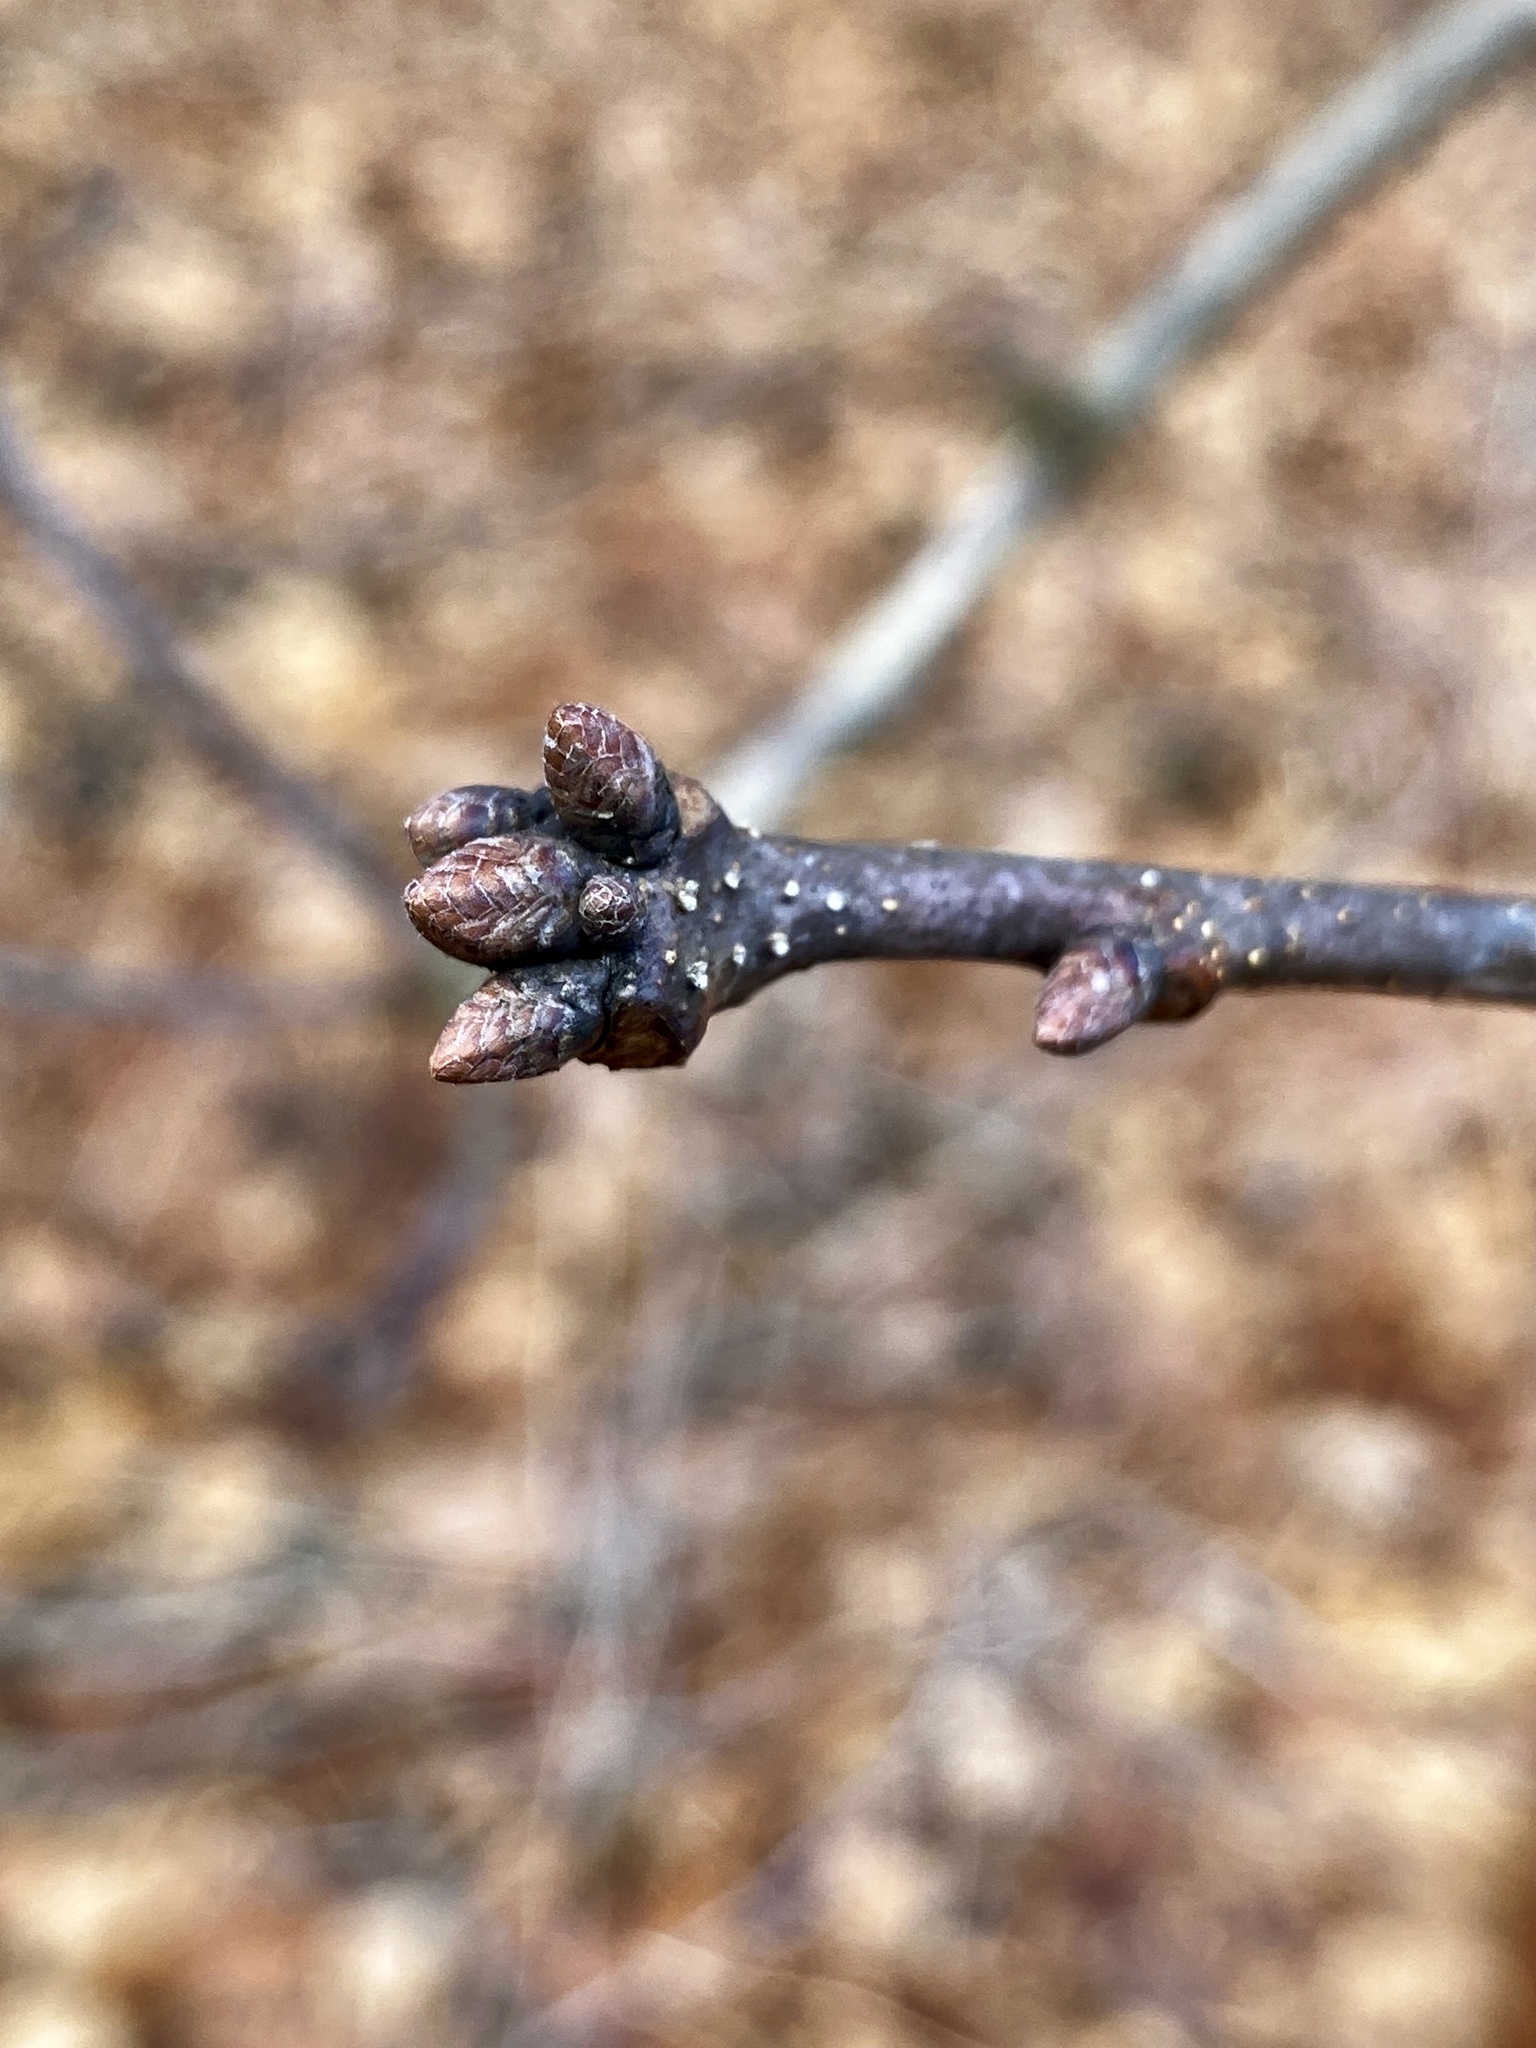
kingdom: Plantae
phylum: Tracheophyta
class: Magnoliopsida
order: Fagales
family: Fagaceae
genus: Quercus
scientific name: Quercus alba
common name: White oak
